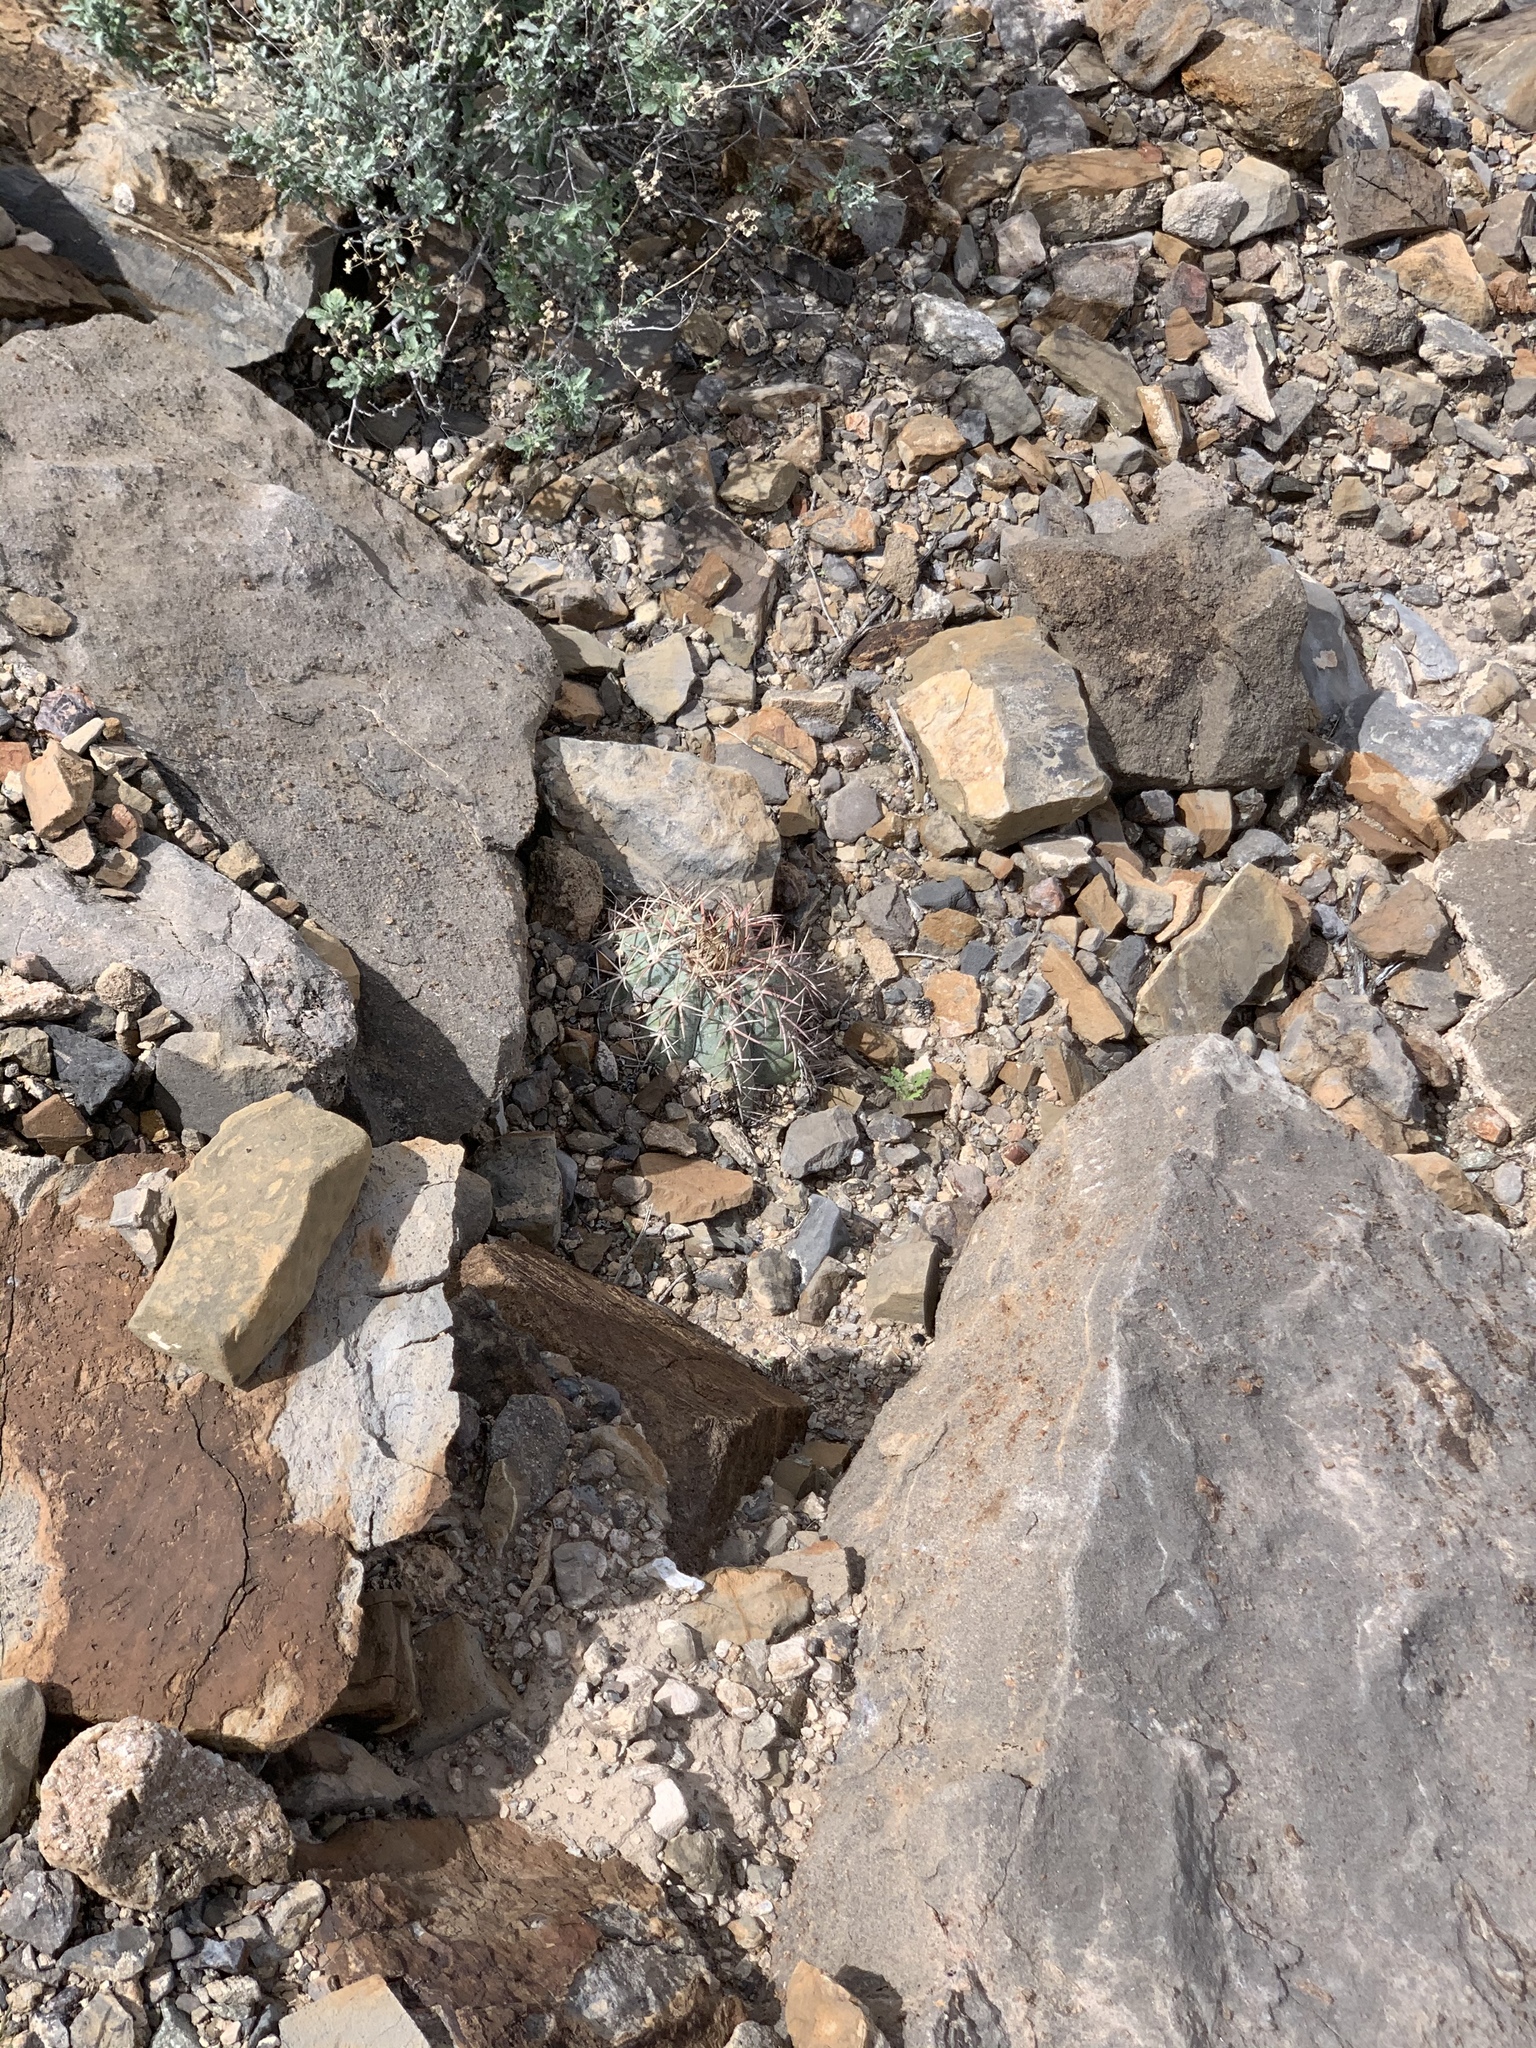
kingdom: Plantae
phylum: Tracheophyta
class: Magnoliopsida
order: Caryophyllales
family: Cactaceae
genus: Echinocactus
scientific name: Echinocactus horizonthalonius
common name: Devilshead
